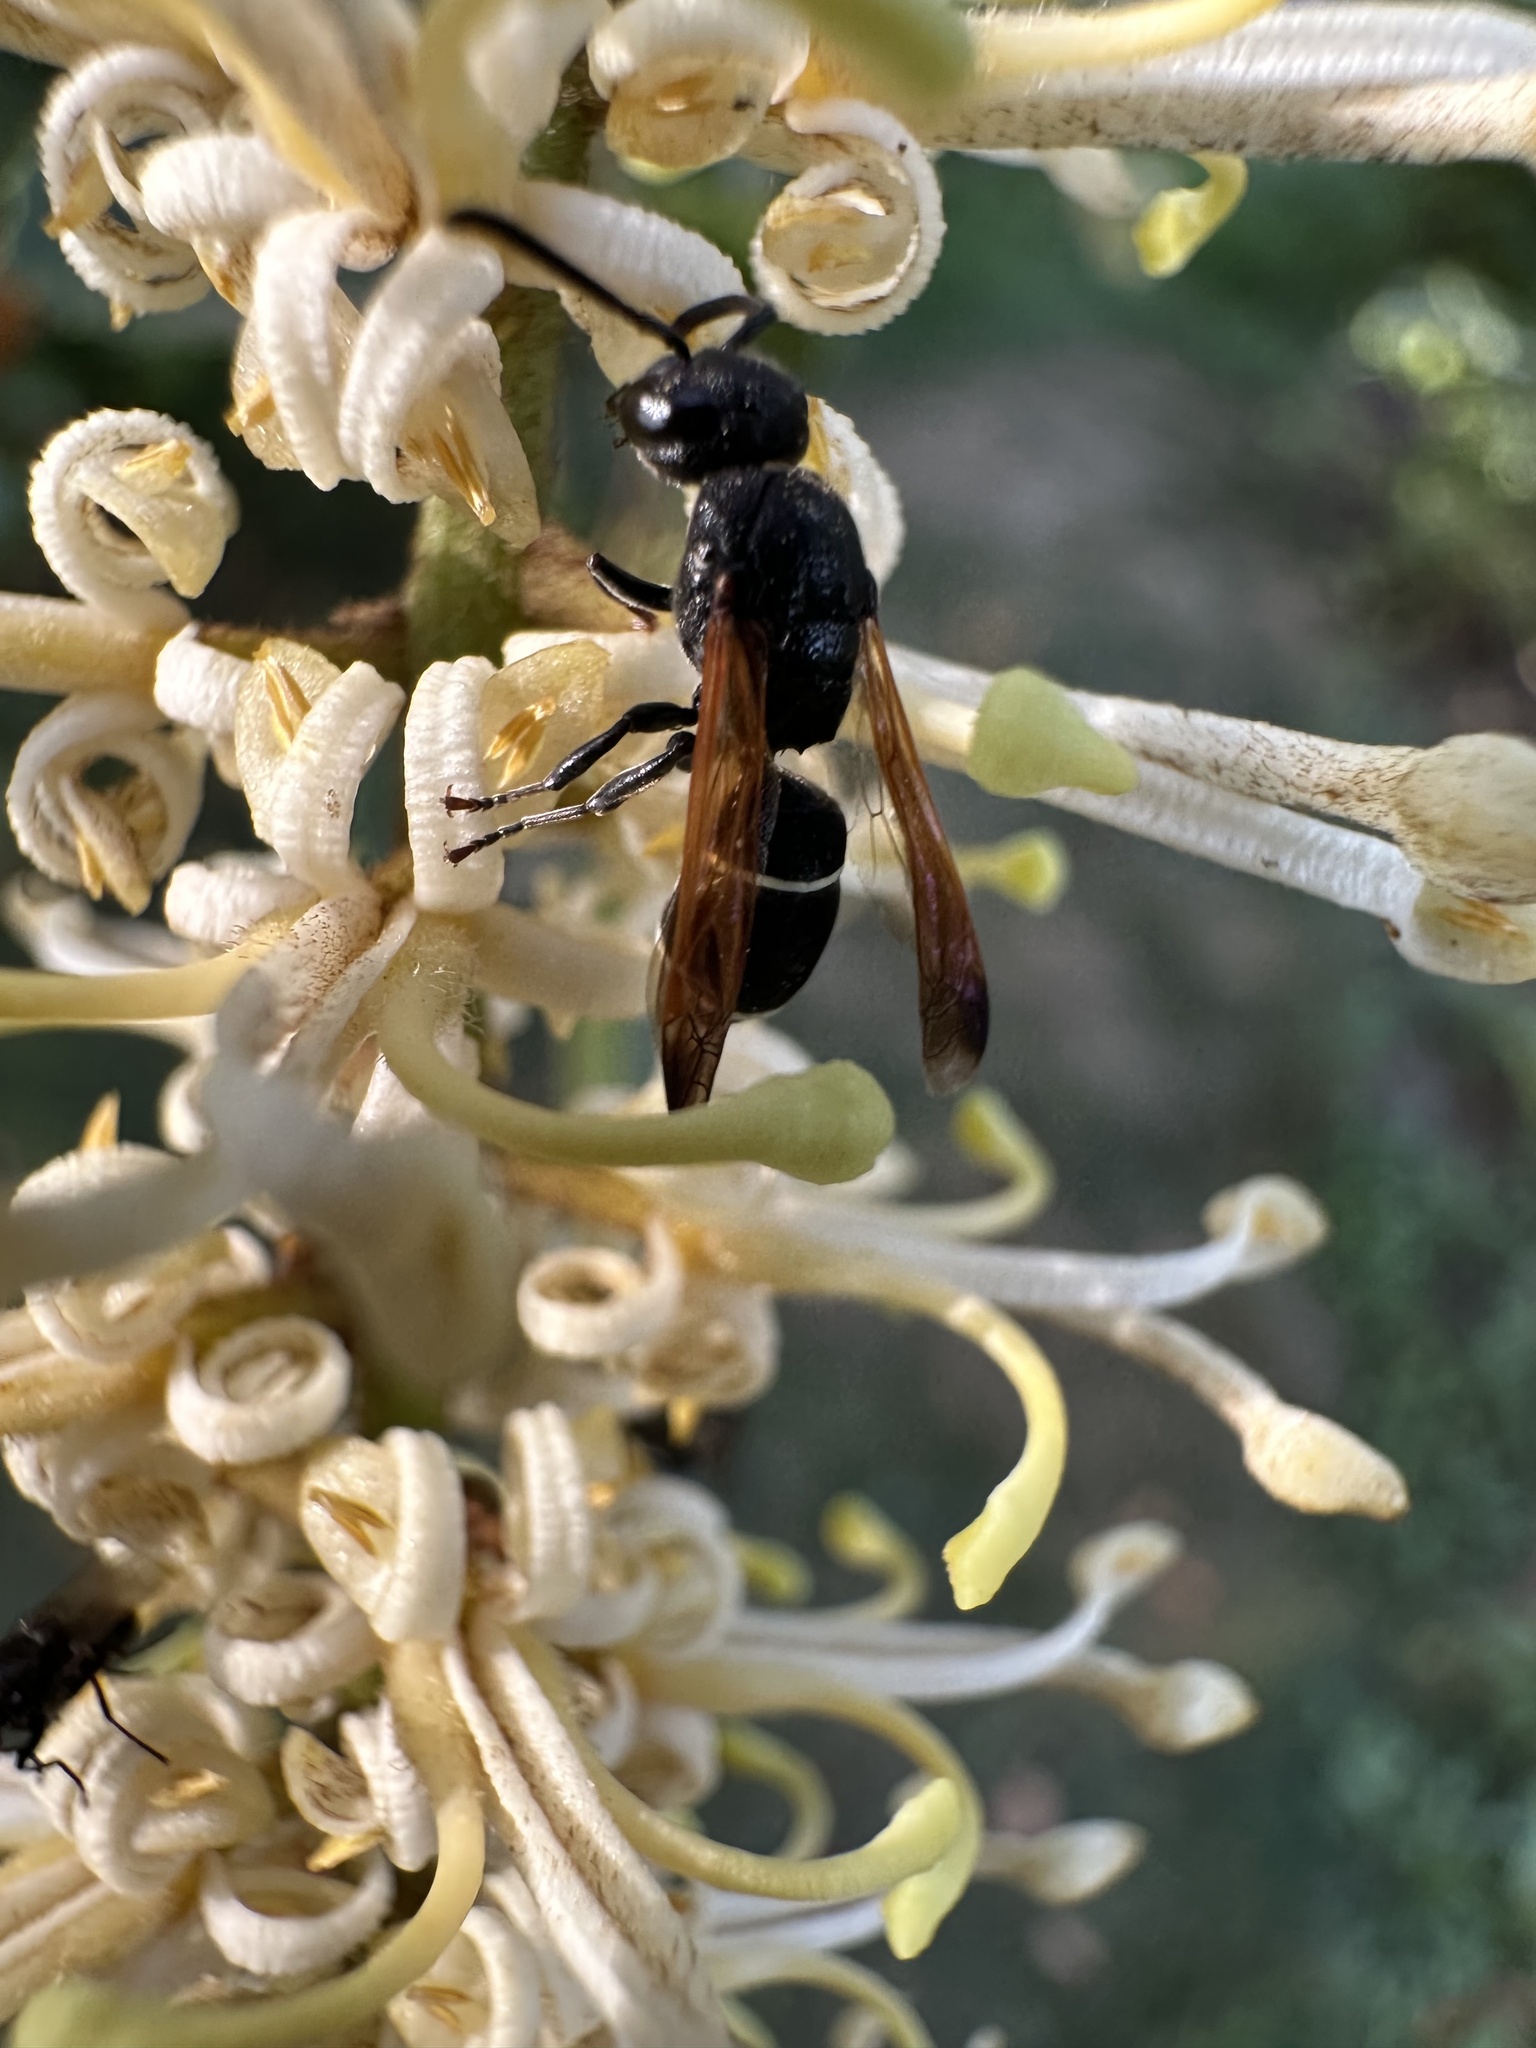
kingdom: Animalia
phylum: Arthropoda
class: Insecta
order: Hymenoptera
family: Eumenidae
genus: Ancistroceroides
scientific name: Ancistroceroides ambiguus
